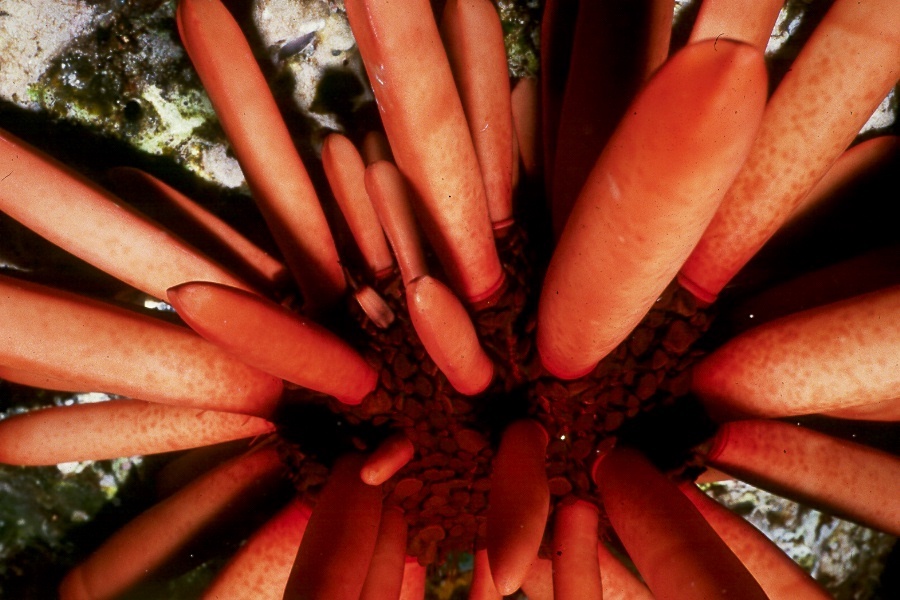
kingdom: Animalia
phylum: Echinodermata
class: Echinoidea
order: Camarodonta
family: Echinometridae
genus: Heterocentrotus
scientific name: Heterocentrotus mamillatus
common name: Slate pencil urchin
